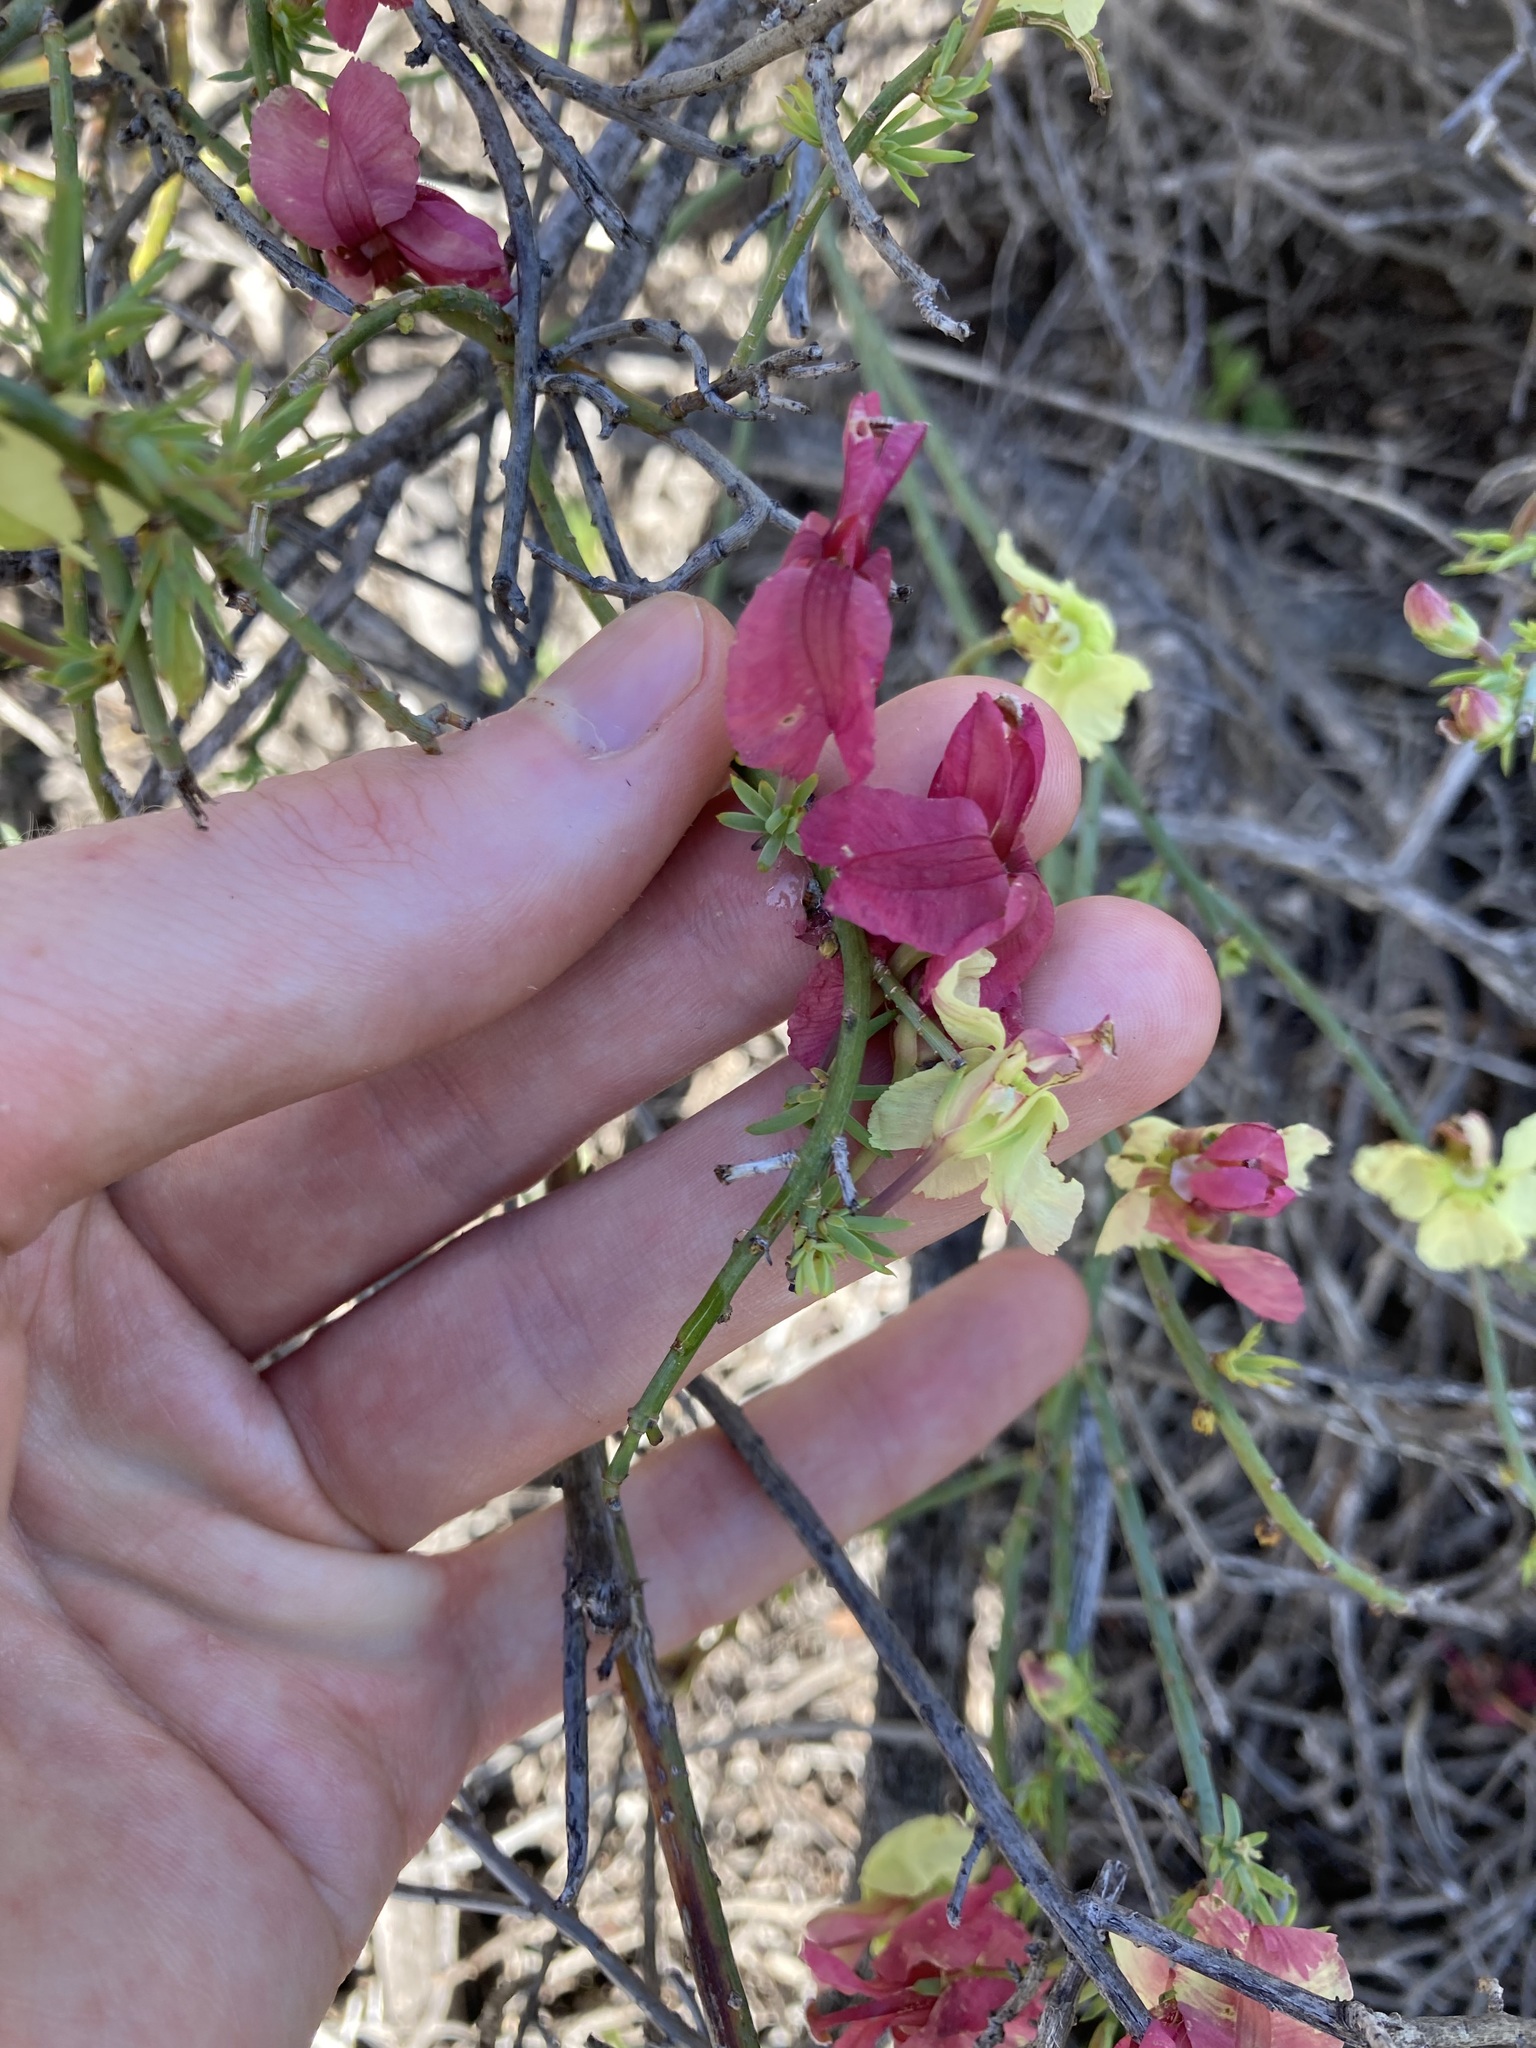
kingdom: Plantae
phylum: Tracheophyta
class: Magnoliopsida
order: Asterales
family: Goodeniaceae
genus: Lechenaultia
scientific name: Lechenaultia linarioides
